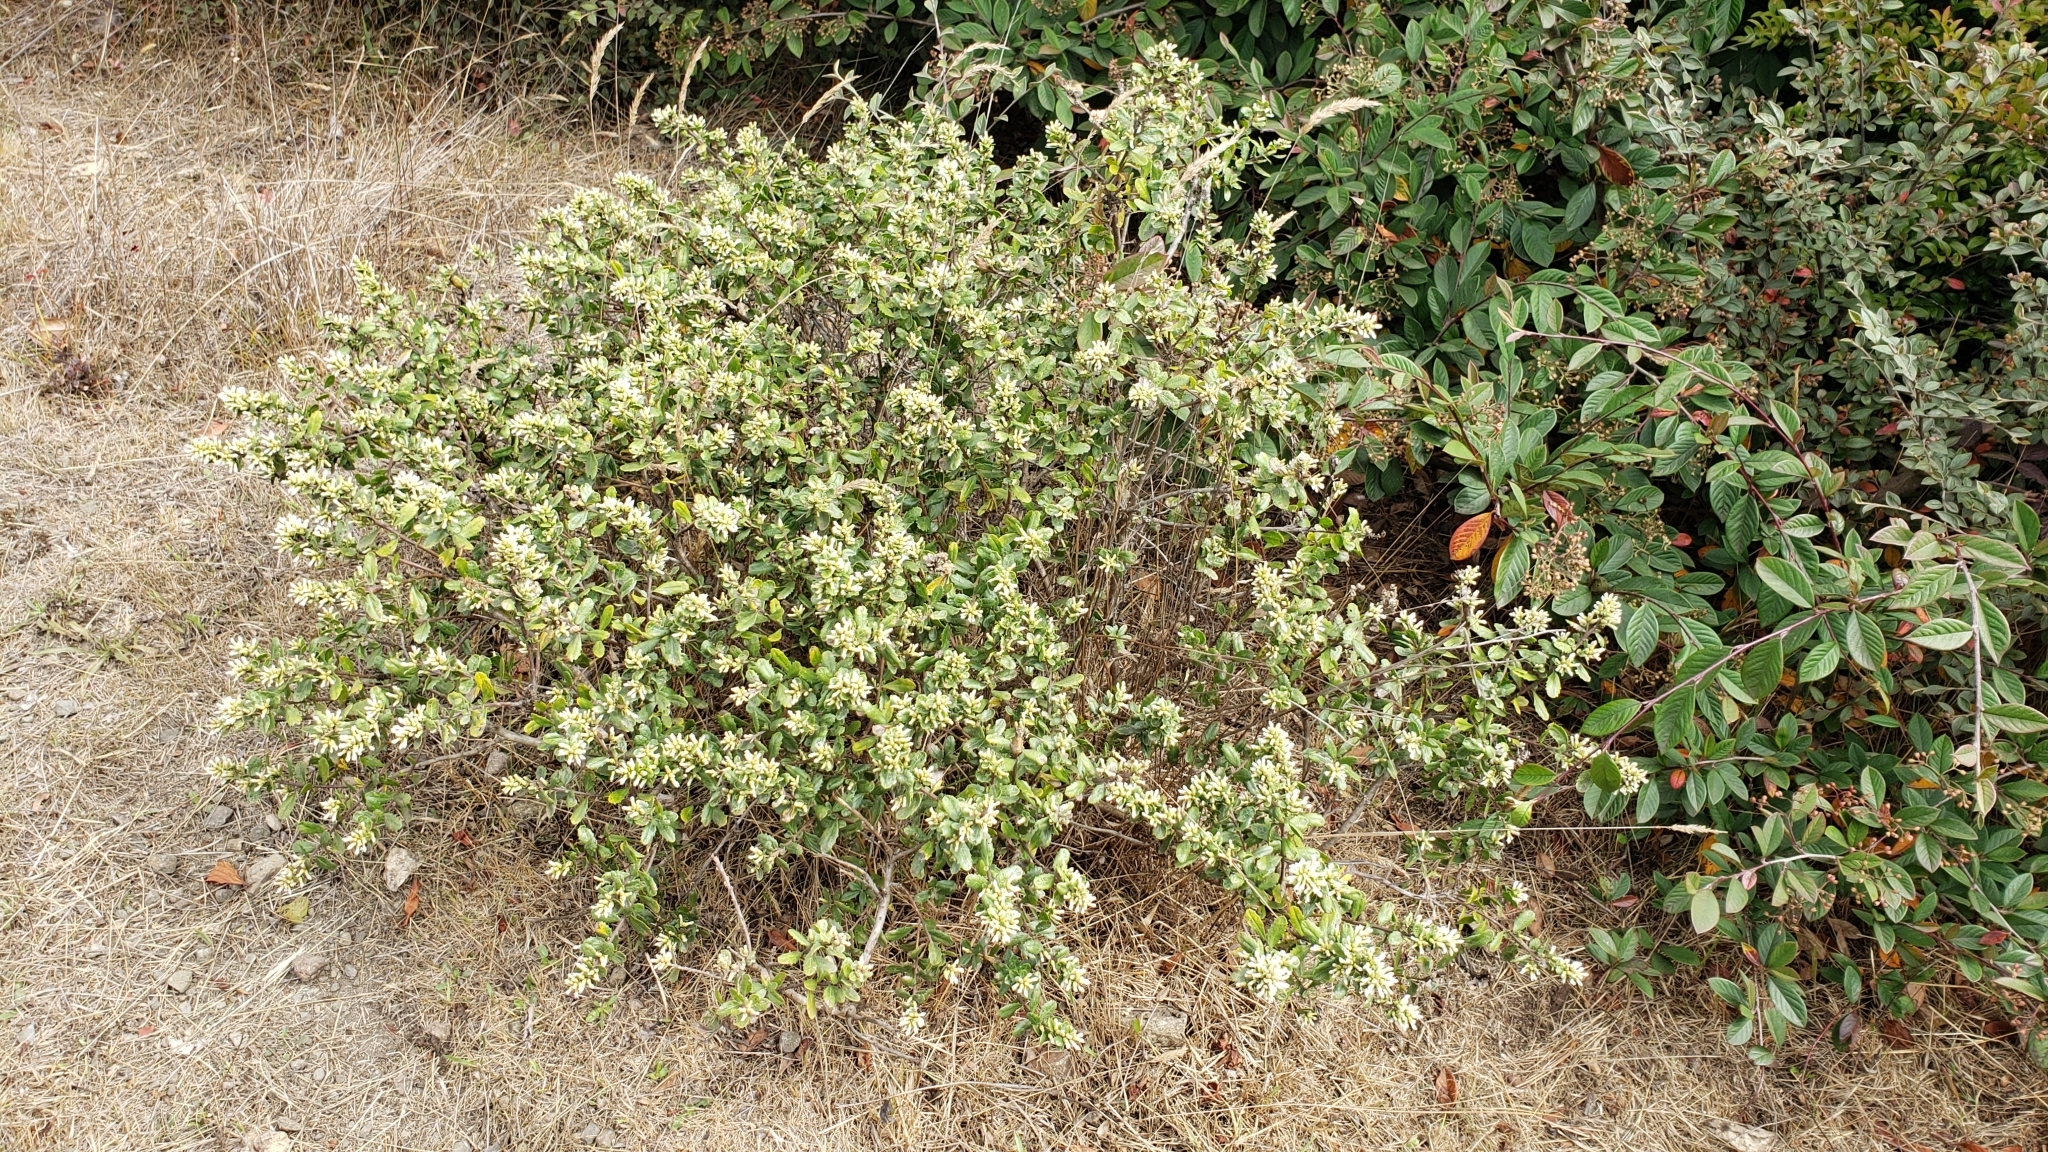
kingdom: Plantae
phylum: Tracheophyta
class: Magnoliopsida
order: Asterales
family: Asteraceae
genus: Baccharis
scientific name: Baccharis pilularis
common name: Coyotebrush
